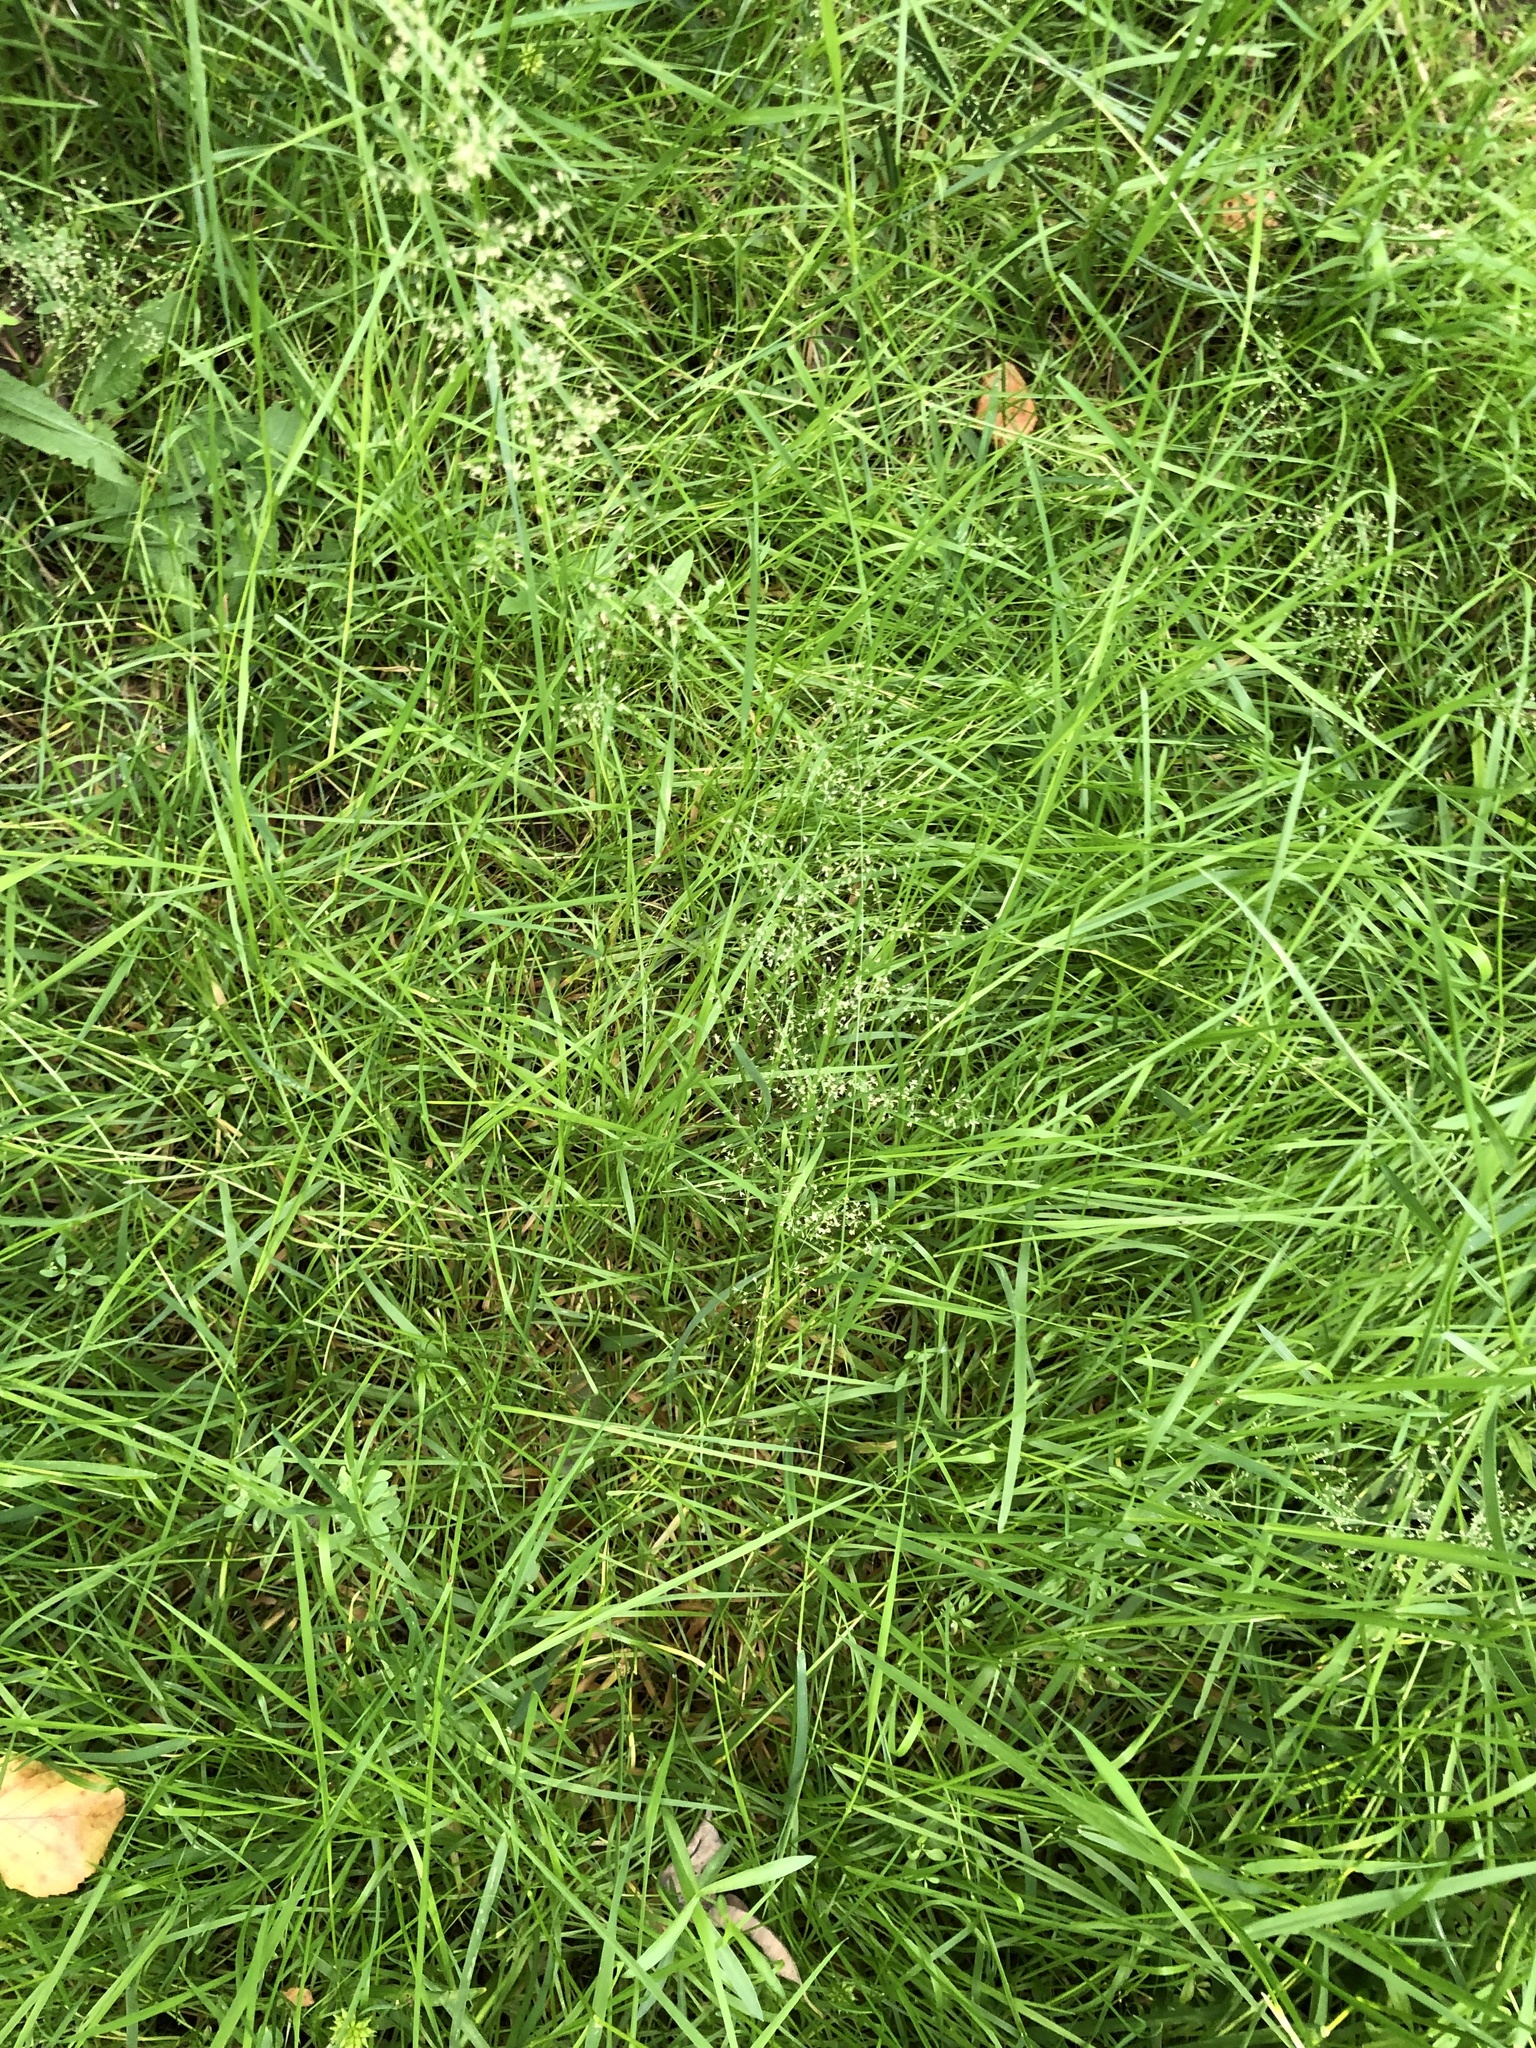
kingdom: Plantae
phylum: Tracheophyta
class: Liliopsida
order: Poales
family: Poaceae
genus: Agrostis
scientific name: Agrostis stolonifera
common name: Creeping bentgrass
